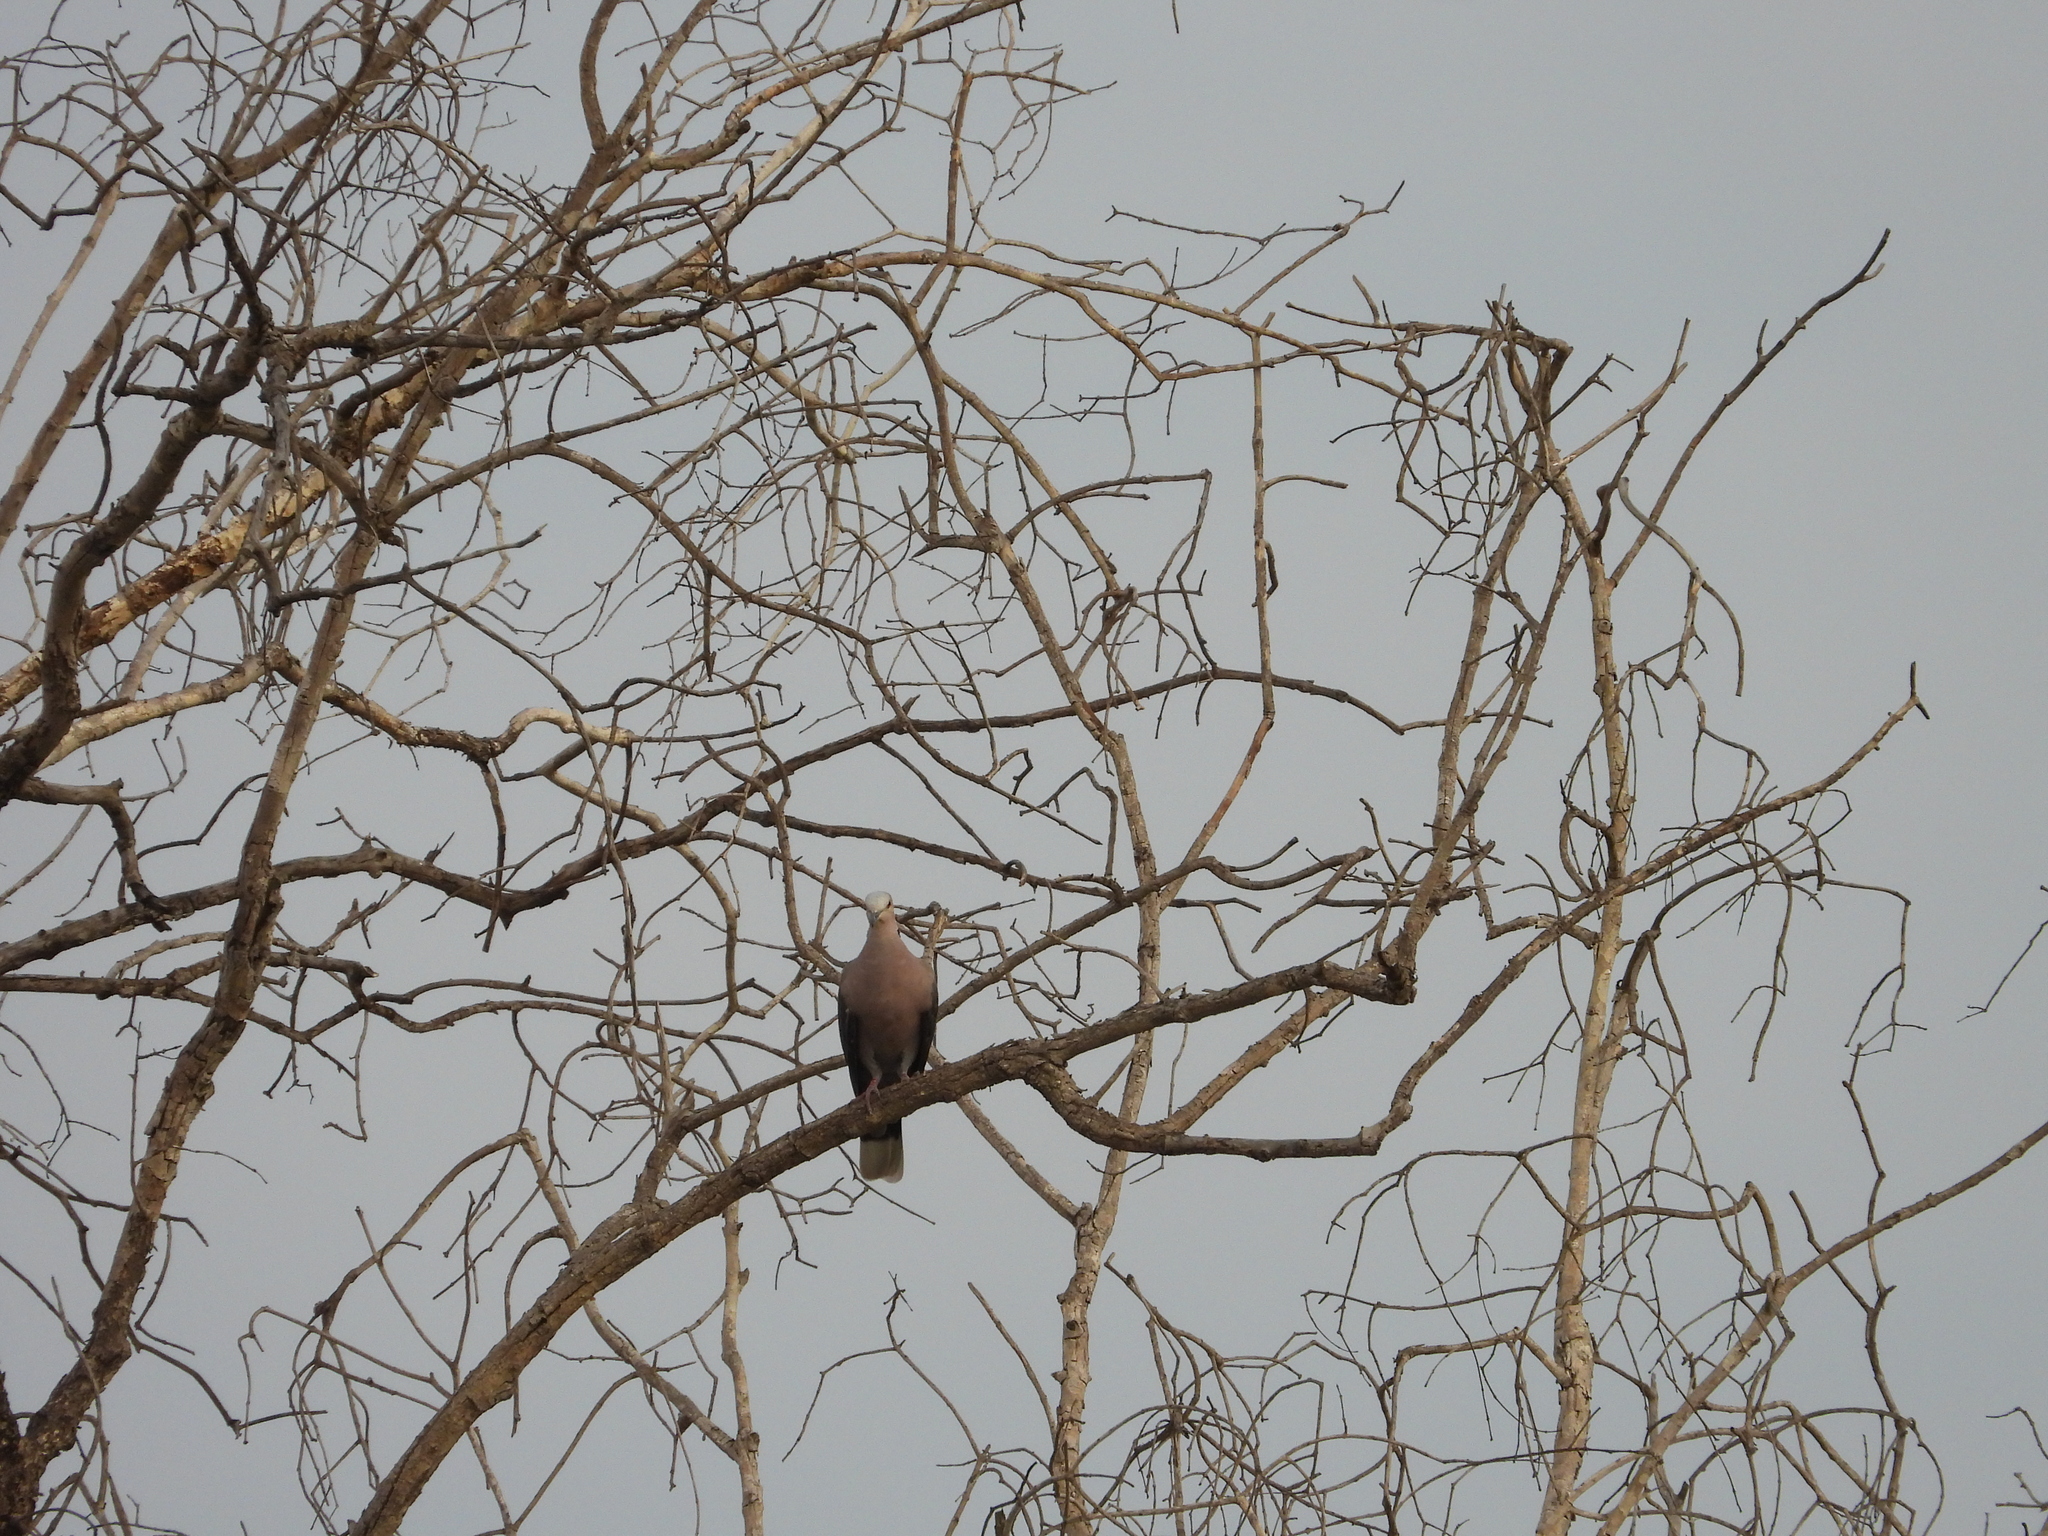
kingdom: Animalia
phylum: Chordata
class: Aves
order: Columbiformes
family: Columbidae
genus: Streptopelia
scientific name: Streptopelia semitorquata
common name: Red-eyed dove
